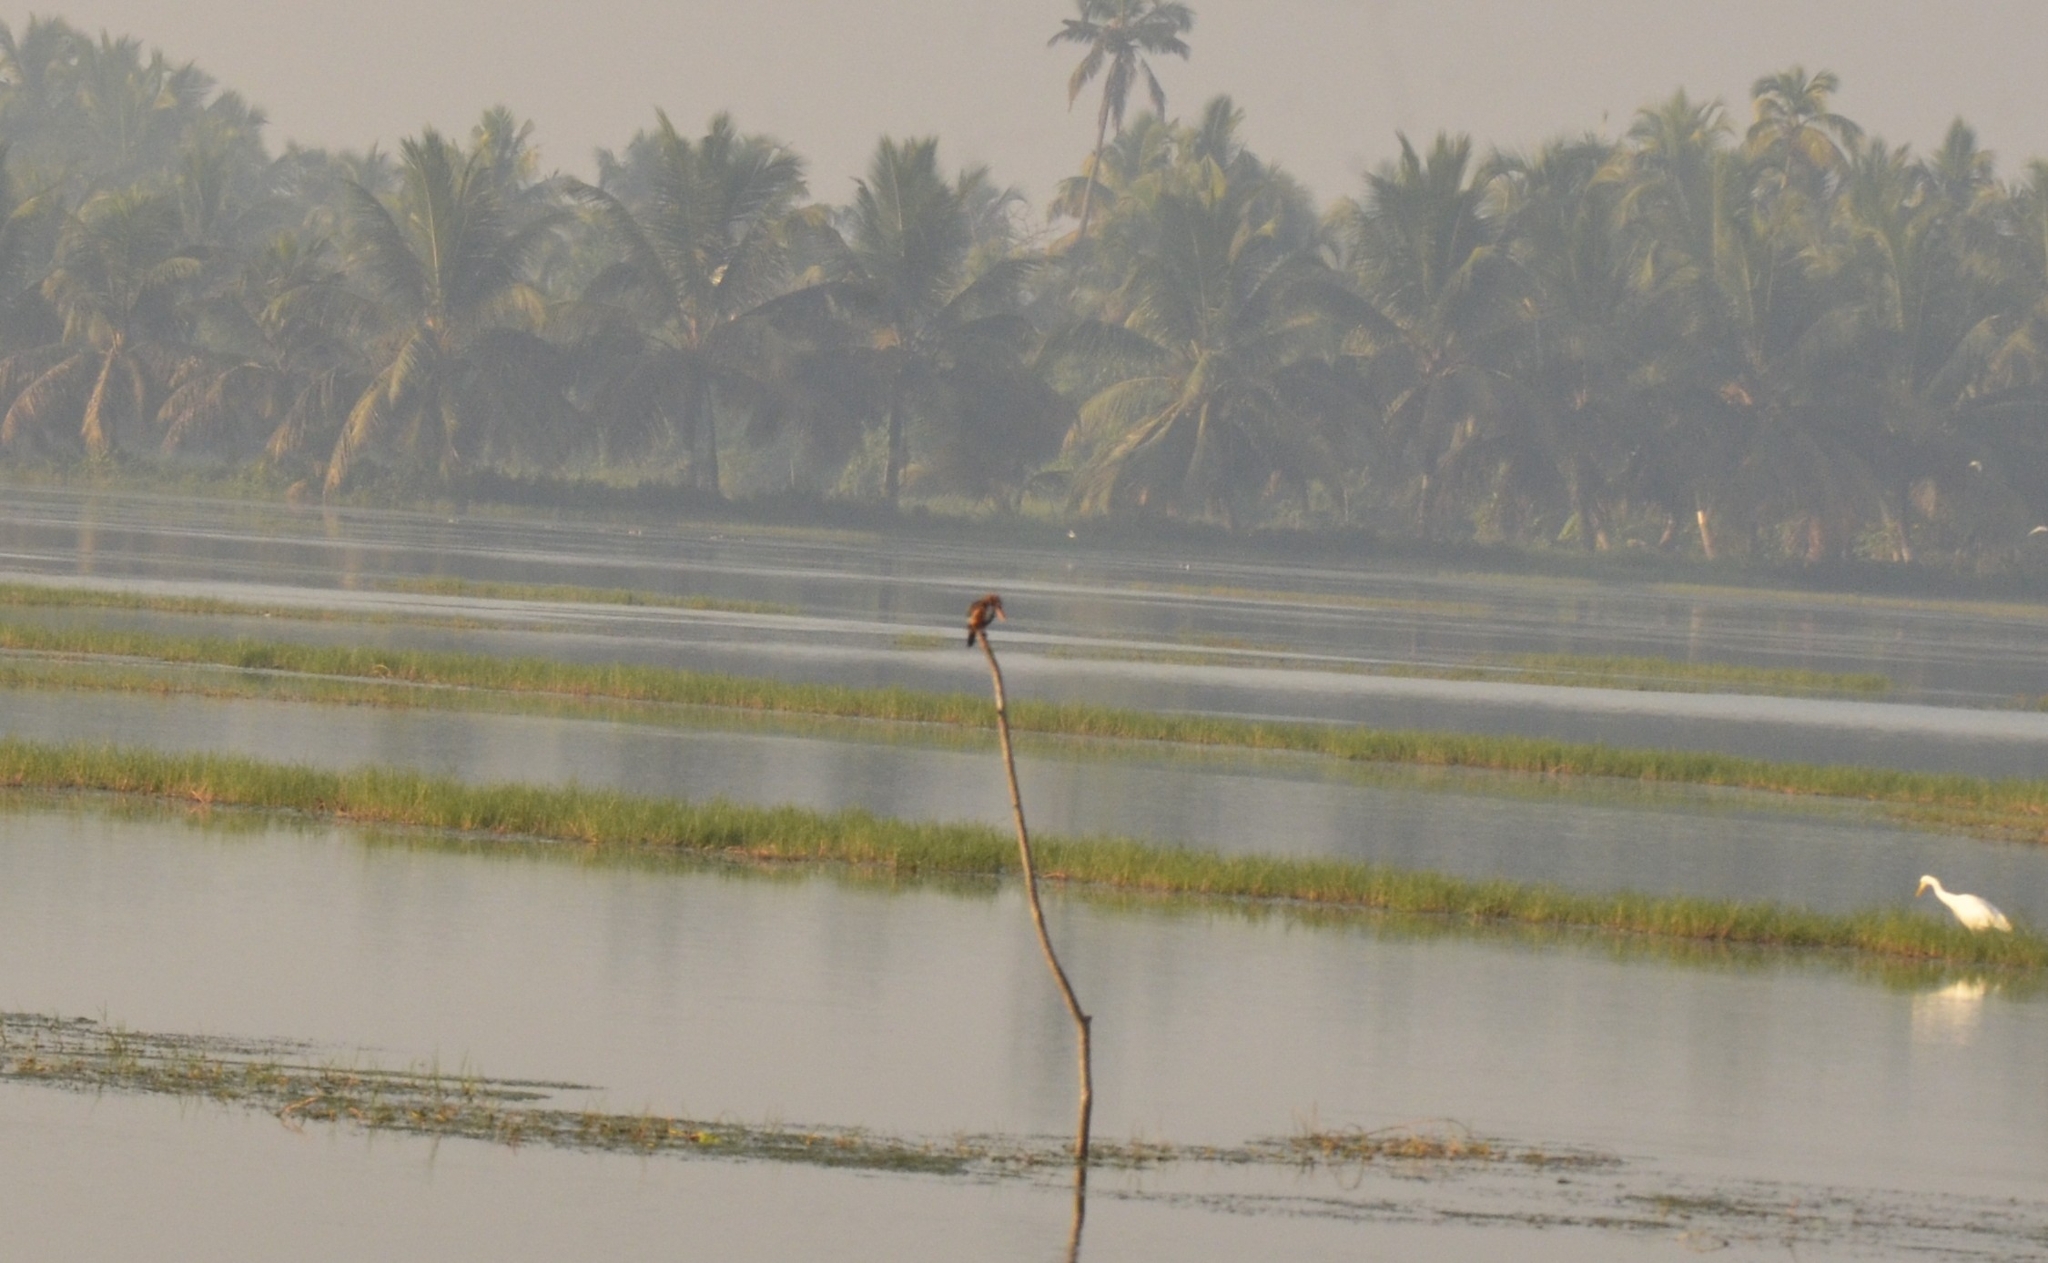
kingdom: Animalia
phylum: Chordata
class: Aves
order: Coraciiformes
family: Alcedinidae
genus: Halcyon
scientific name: Halcyon smyrnensis
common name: White-throated kingfisher
